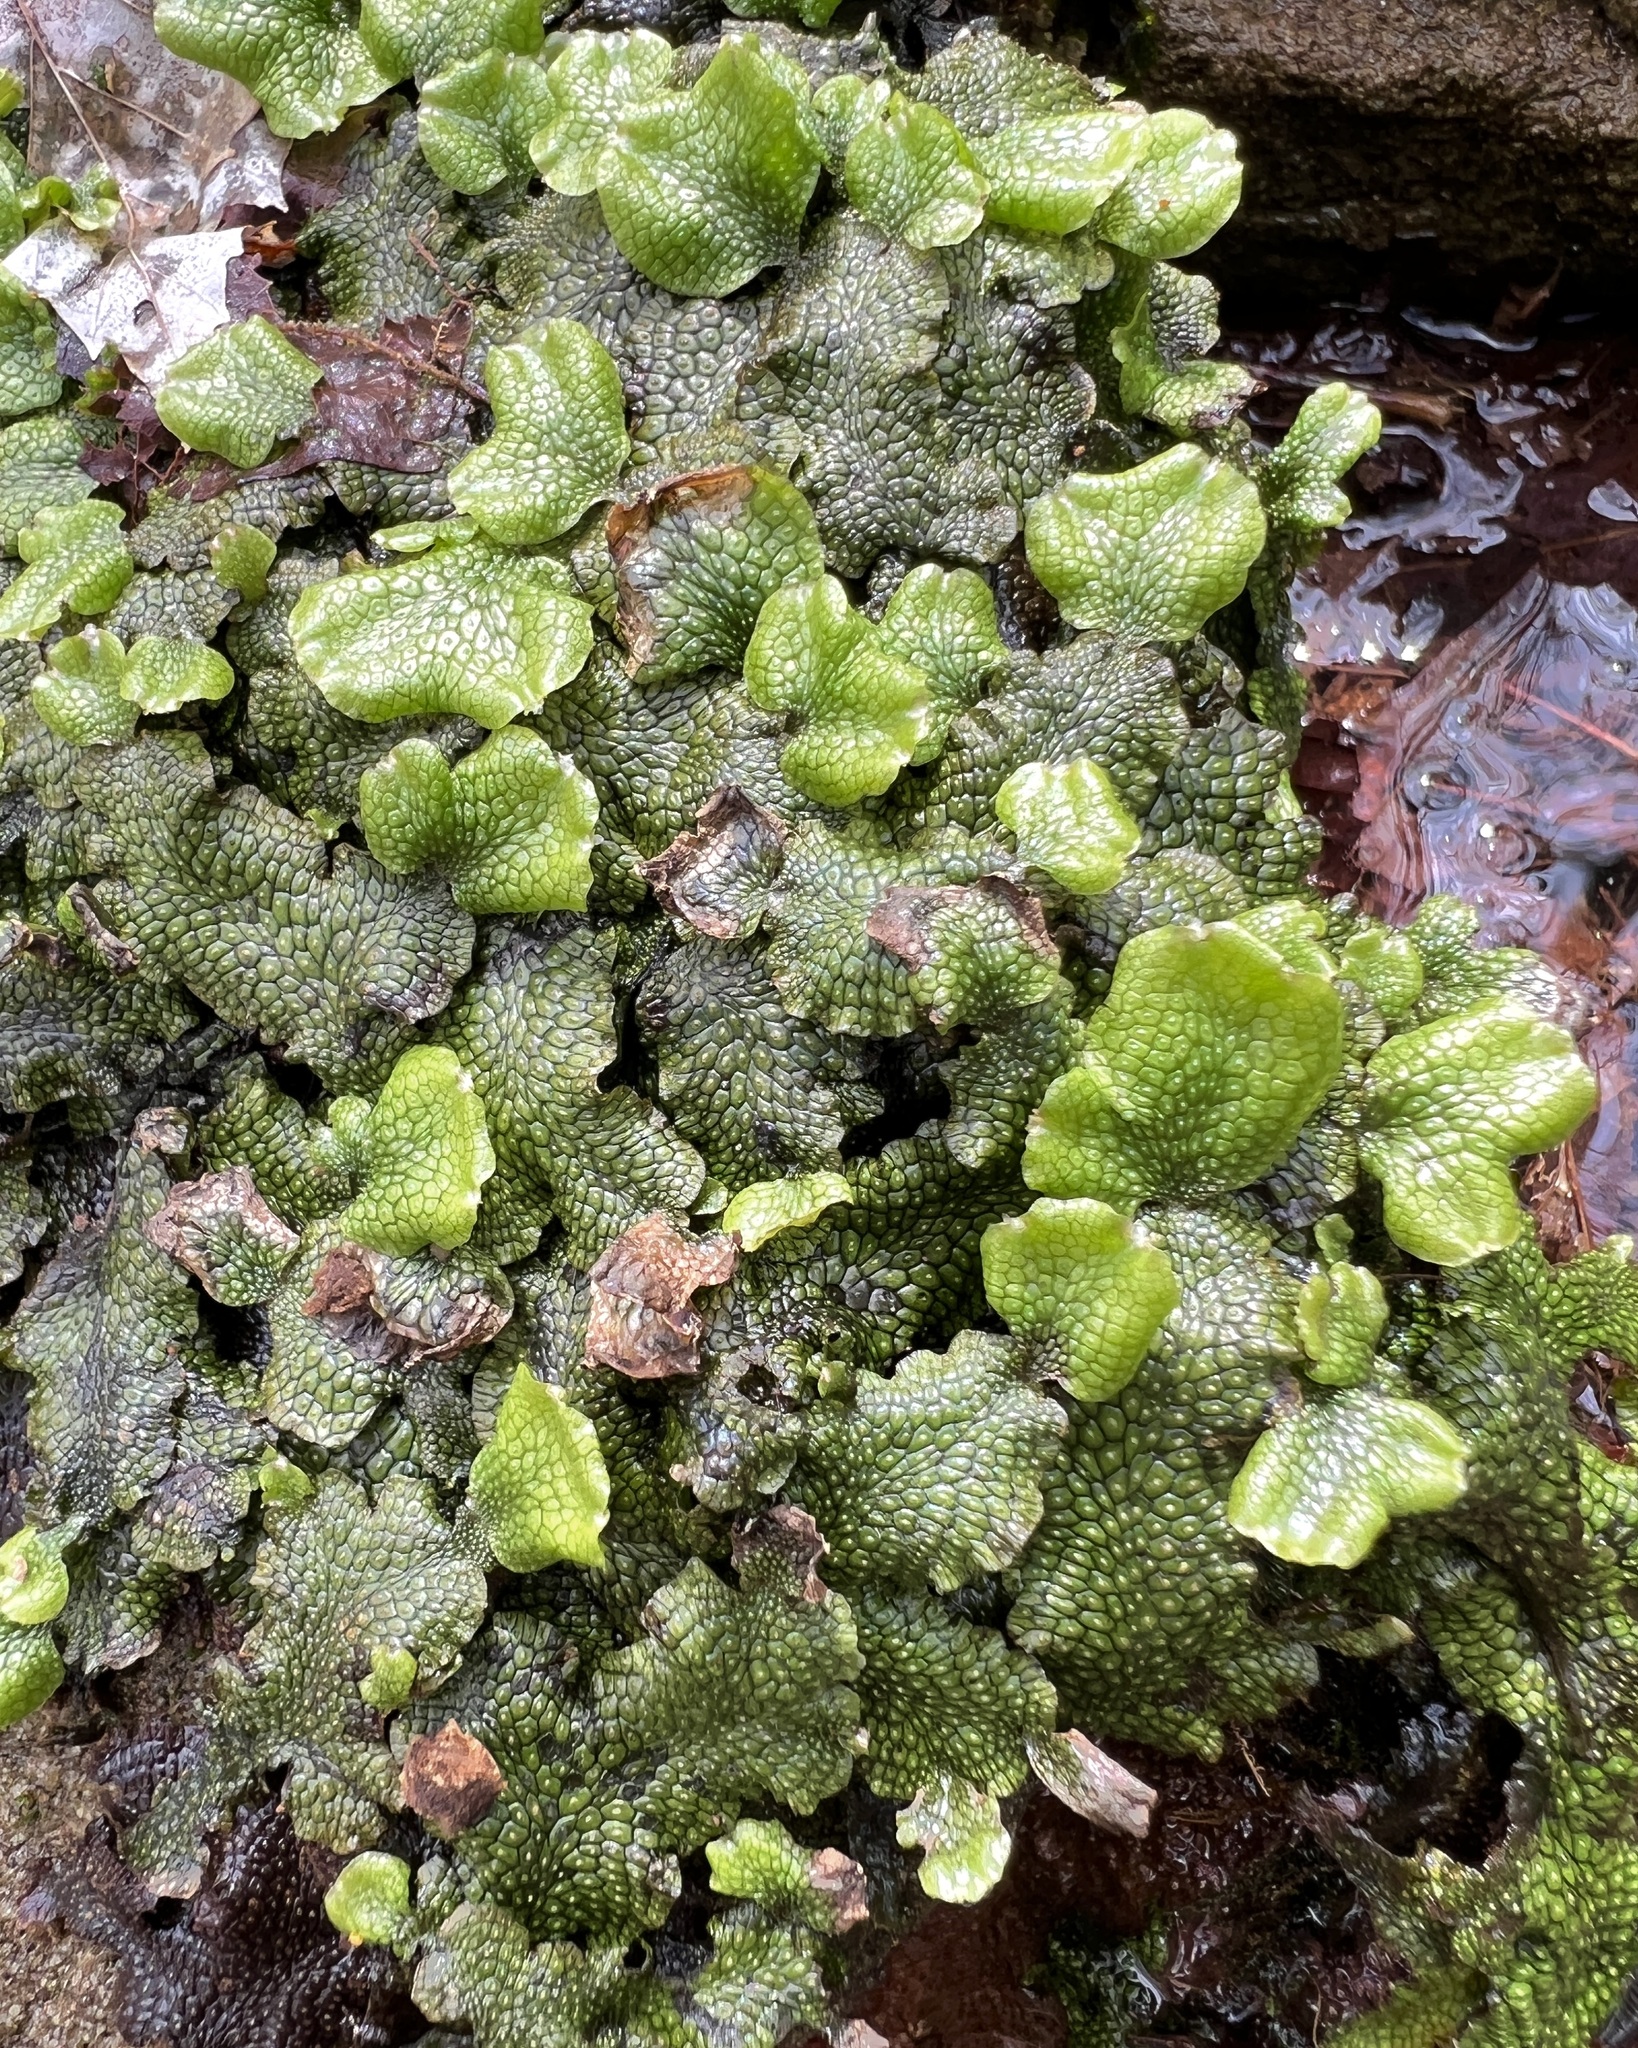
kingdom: Plantae
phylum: Marchantiophyta
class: Marchantiopsida
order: Marchantiales
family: Conocephalaceae
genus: Conocephalum
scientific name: Conocephalum salebrosum
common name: Cat-tongue liverwort
